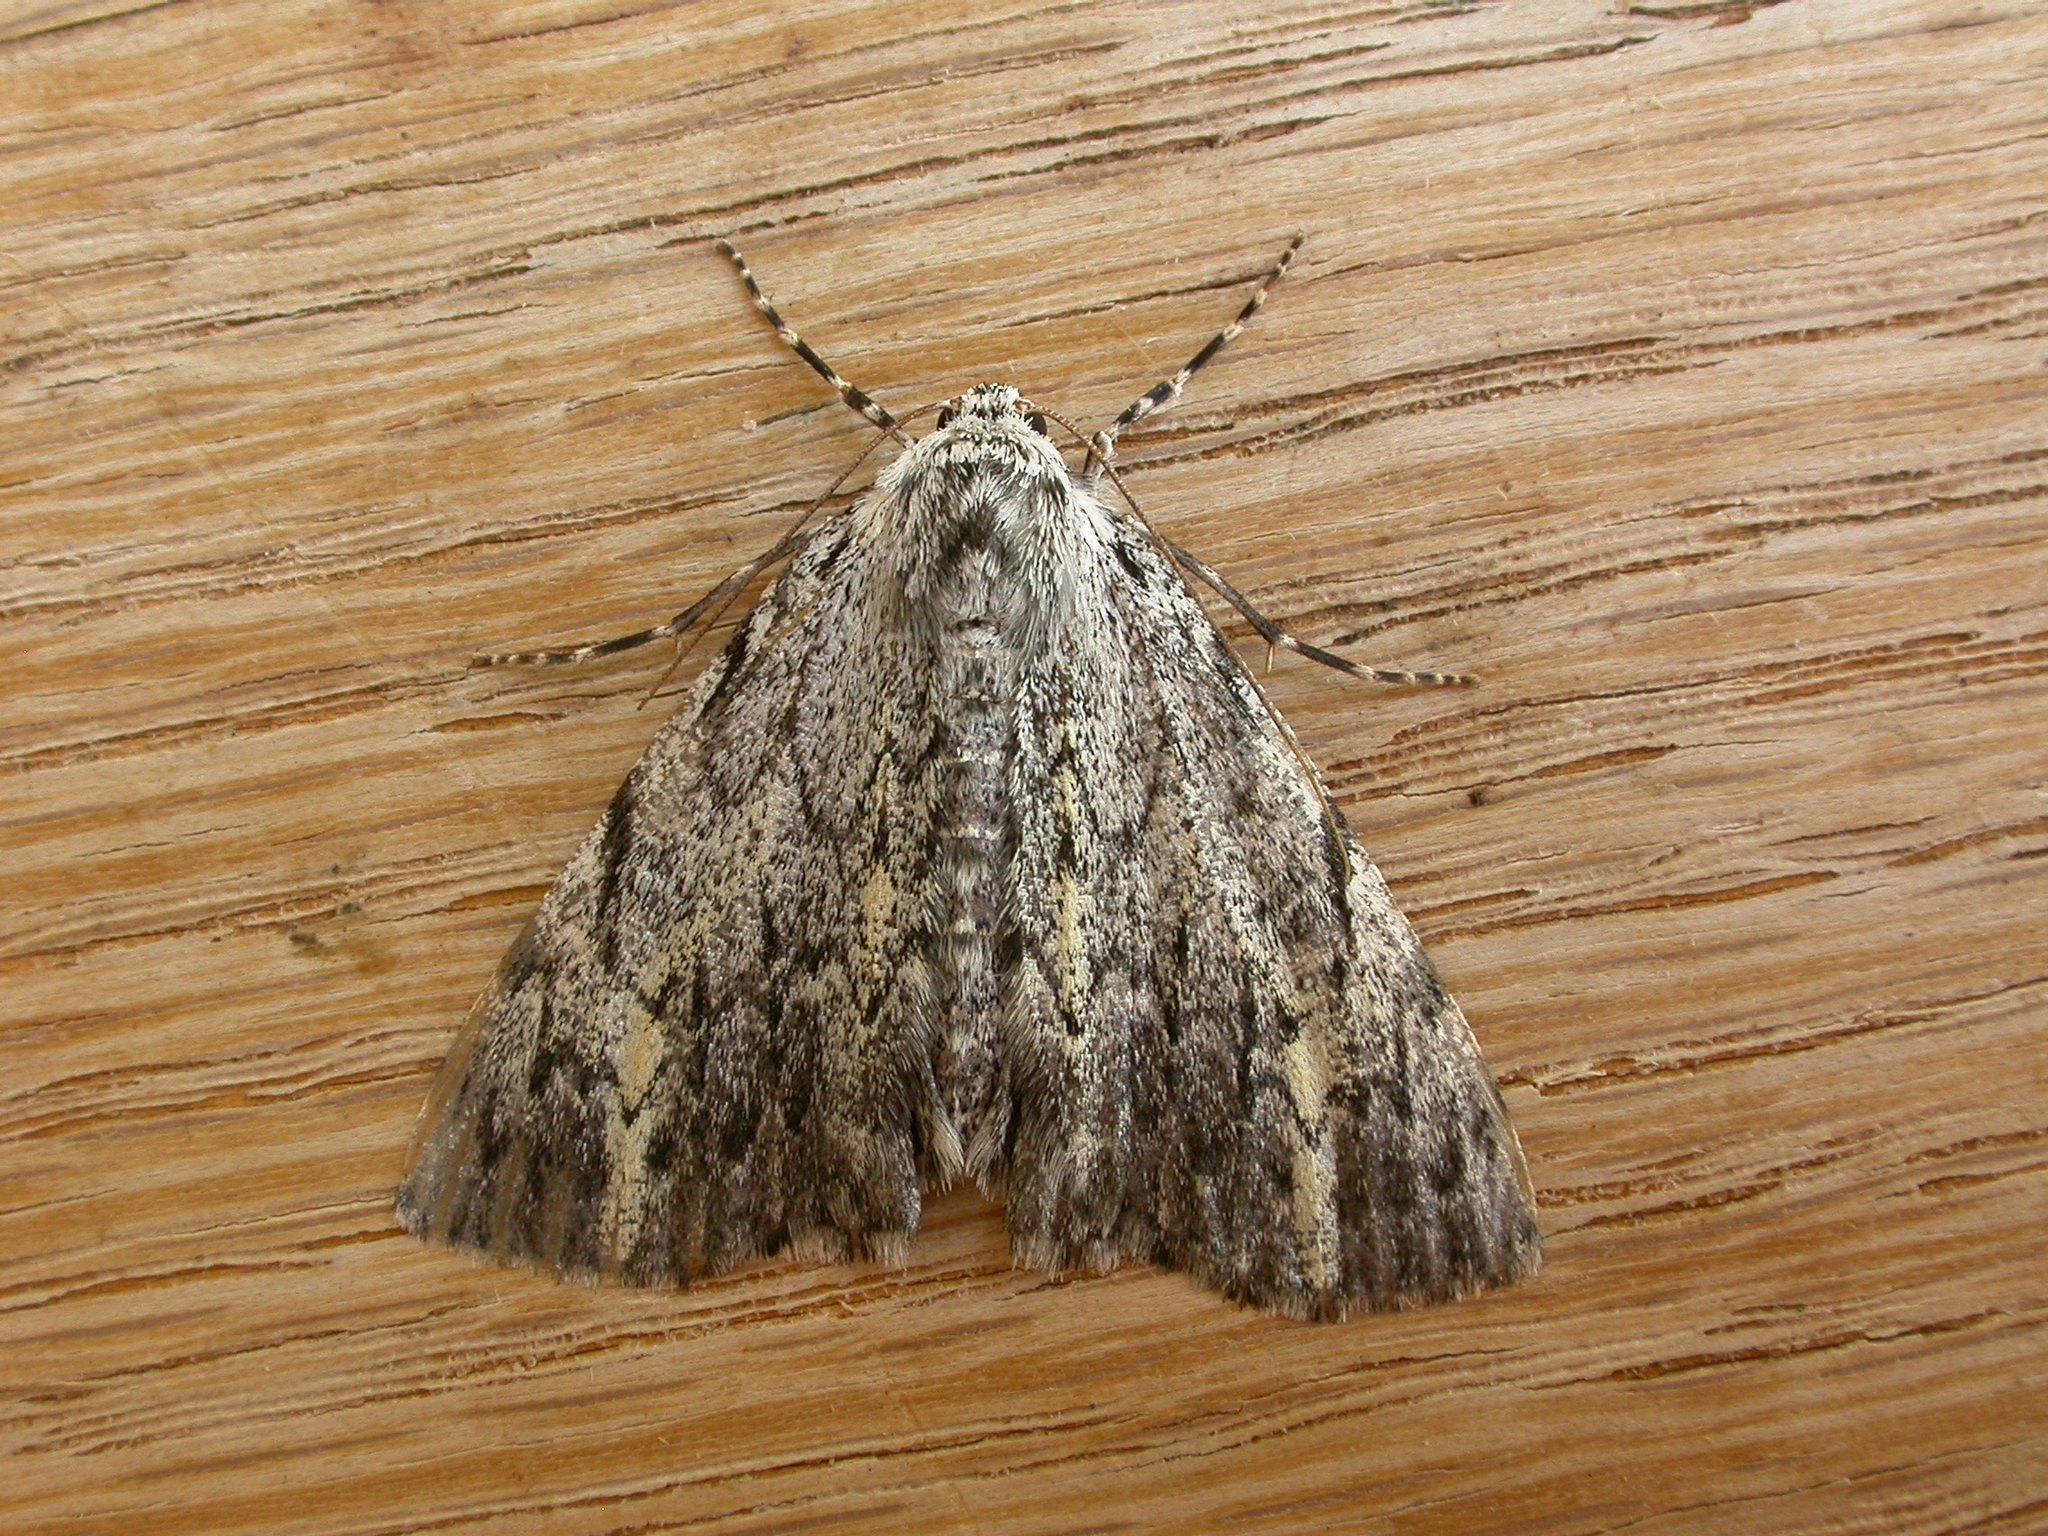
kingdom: Animalia
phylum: Arthropoda
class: Insecta
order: Lepidoptera
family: Geometridae
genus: Rhuma
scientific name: Rhuma divergens
